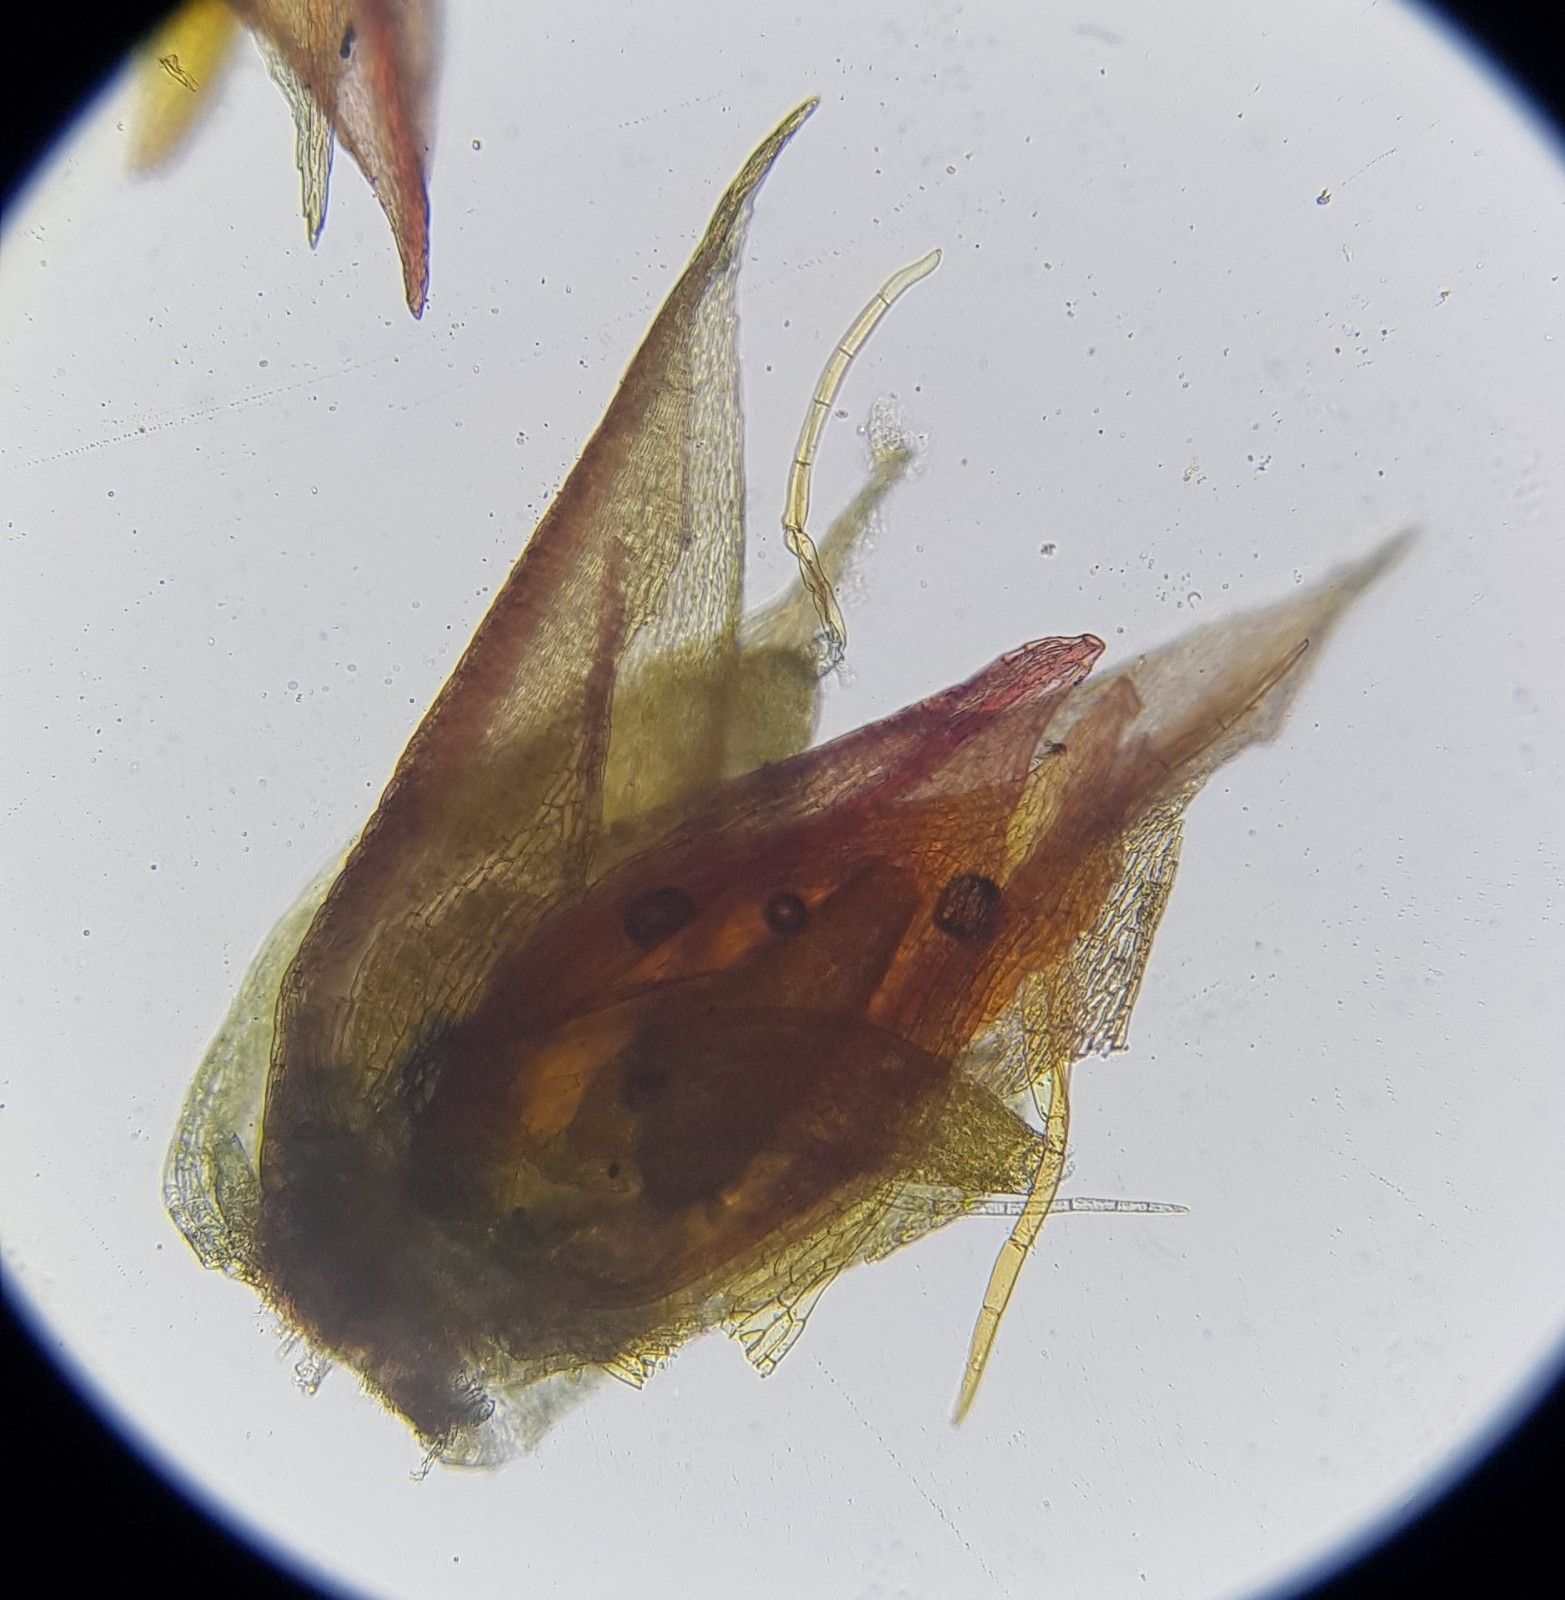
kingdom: Plantae
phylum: Bryophyta
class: Bryopsida
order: Bryales
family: Bryaceae
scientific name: Bryaceae
